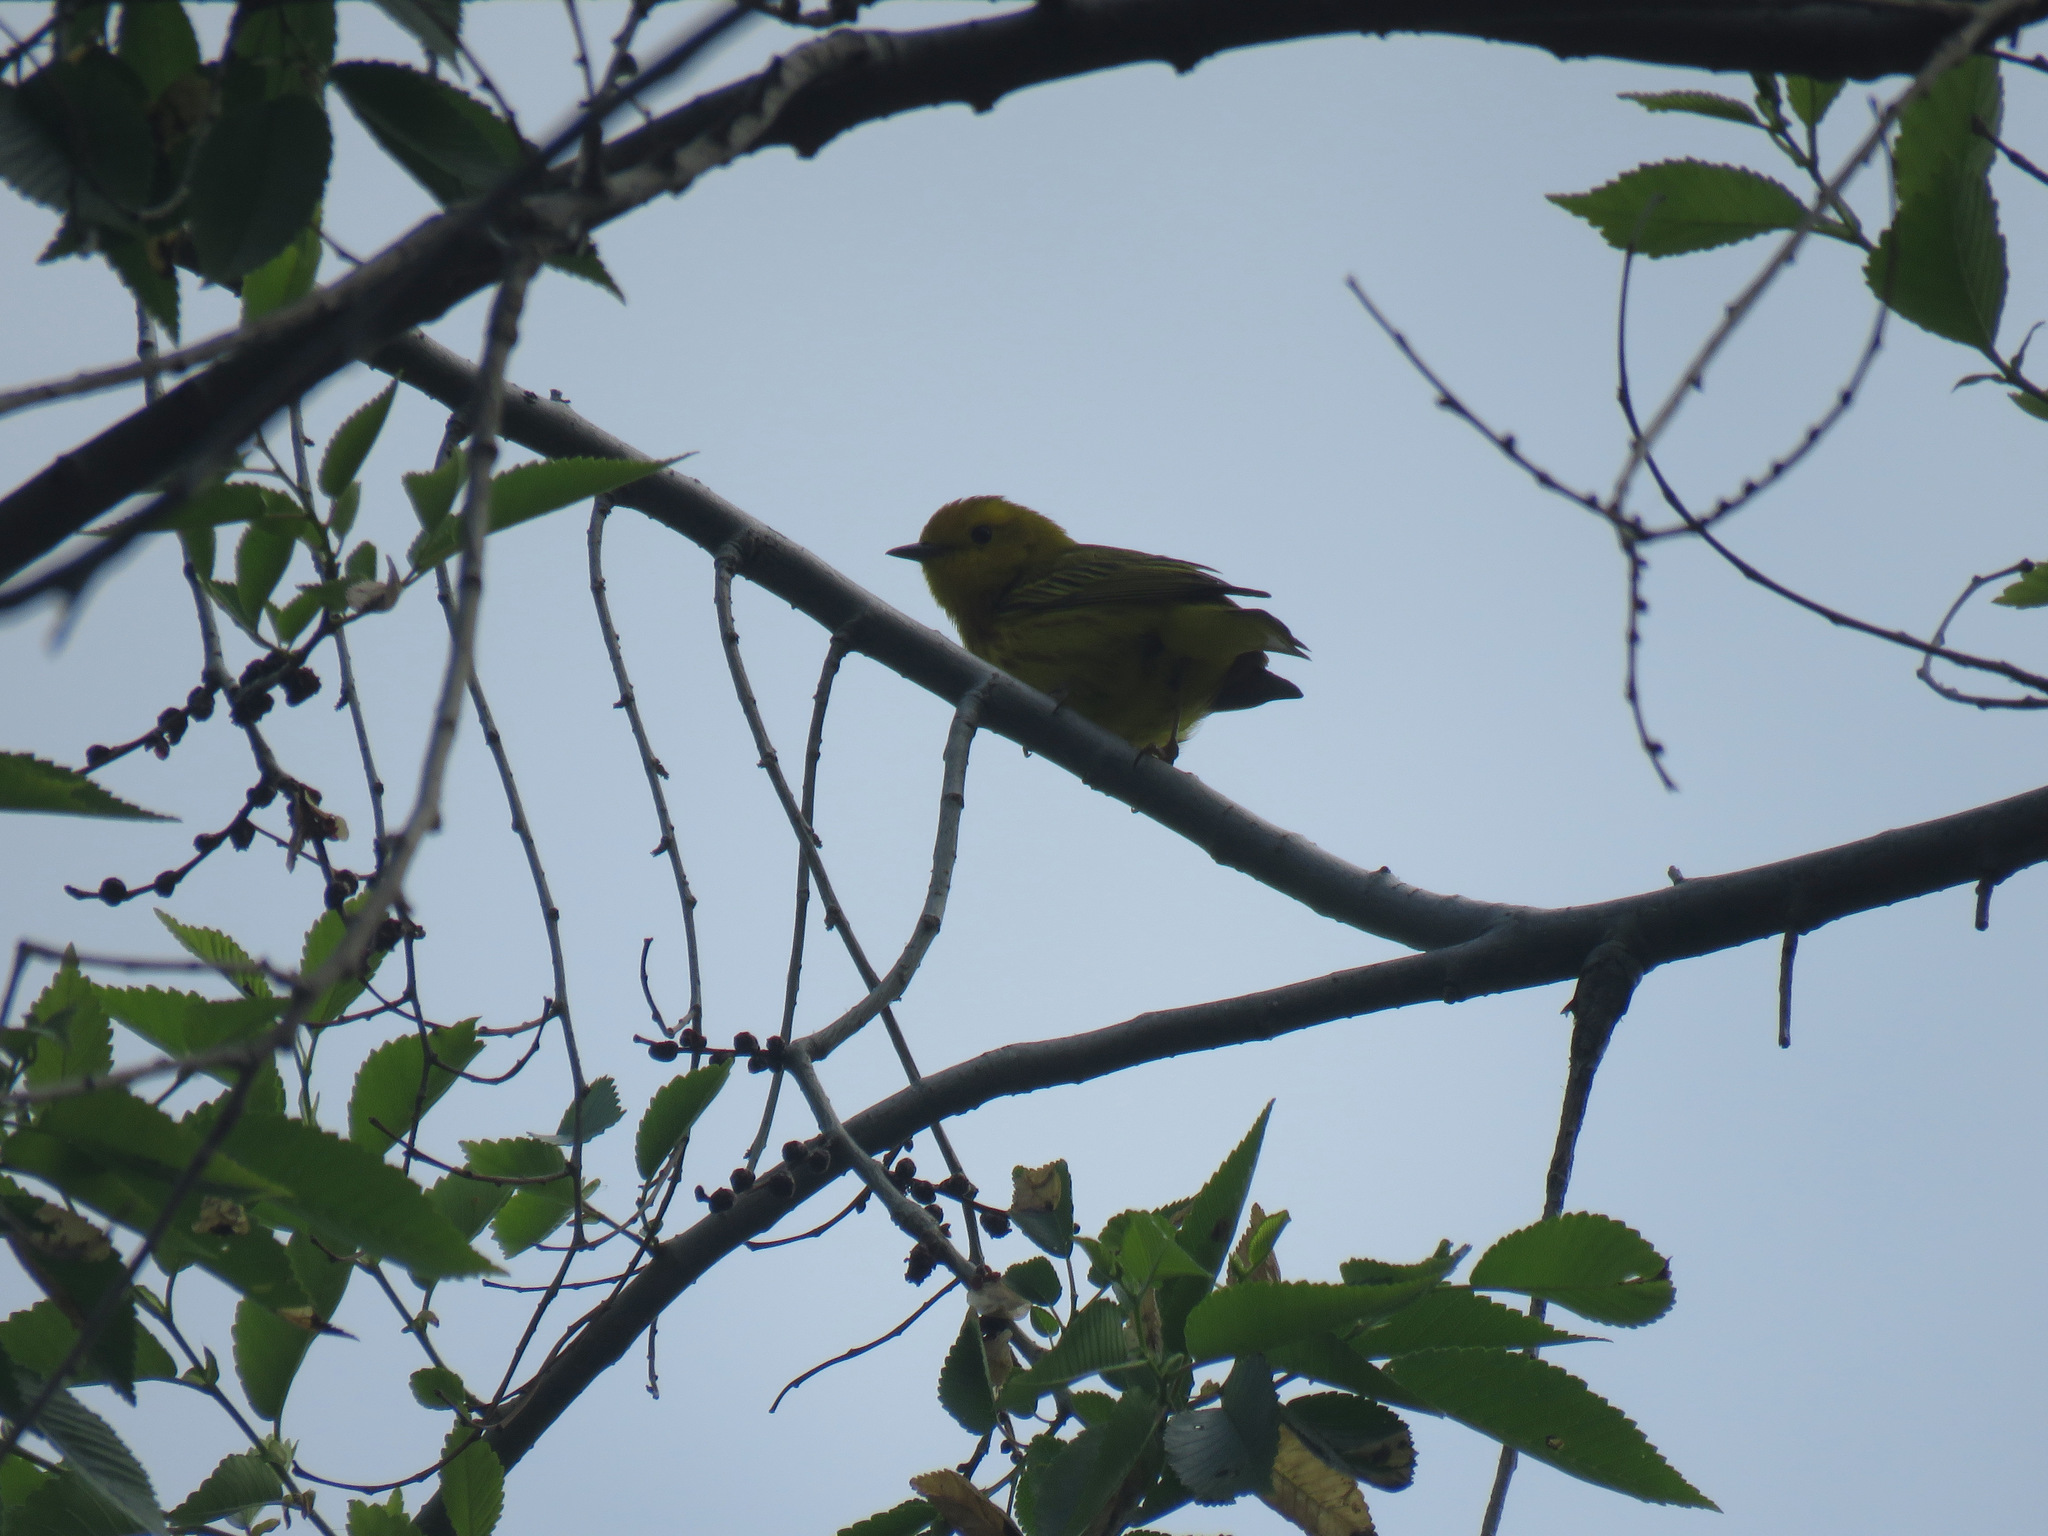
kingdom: Animalia
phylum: Chordata
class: Aves
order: Passeriformes
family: Parulidae
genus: Setophaga
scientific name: Setophaga petechia
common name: Yellow warbler
